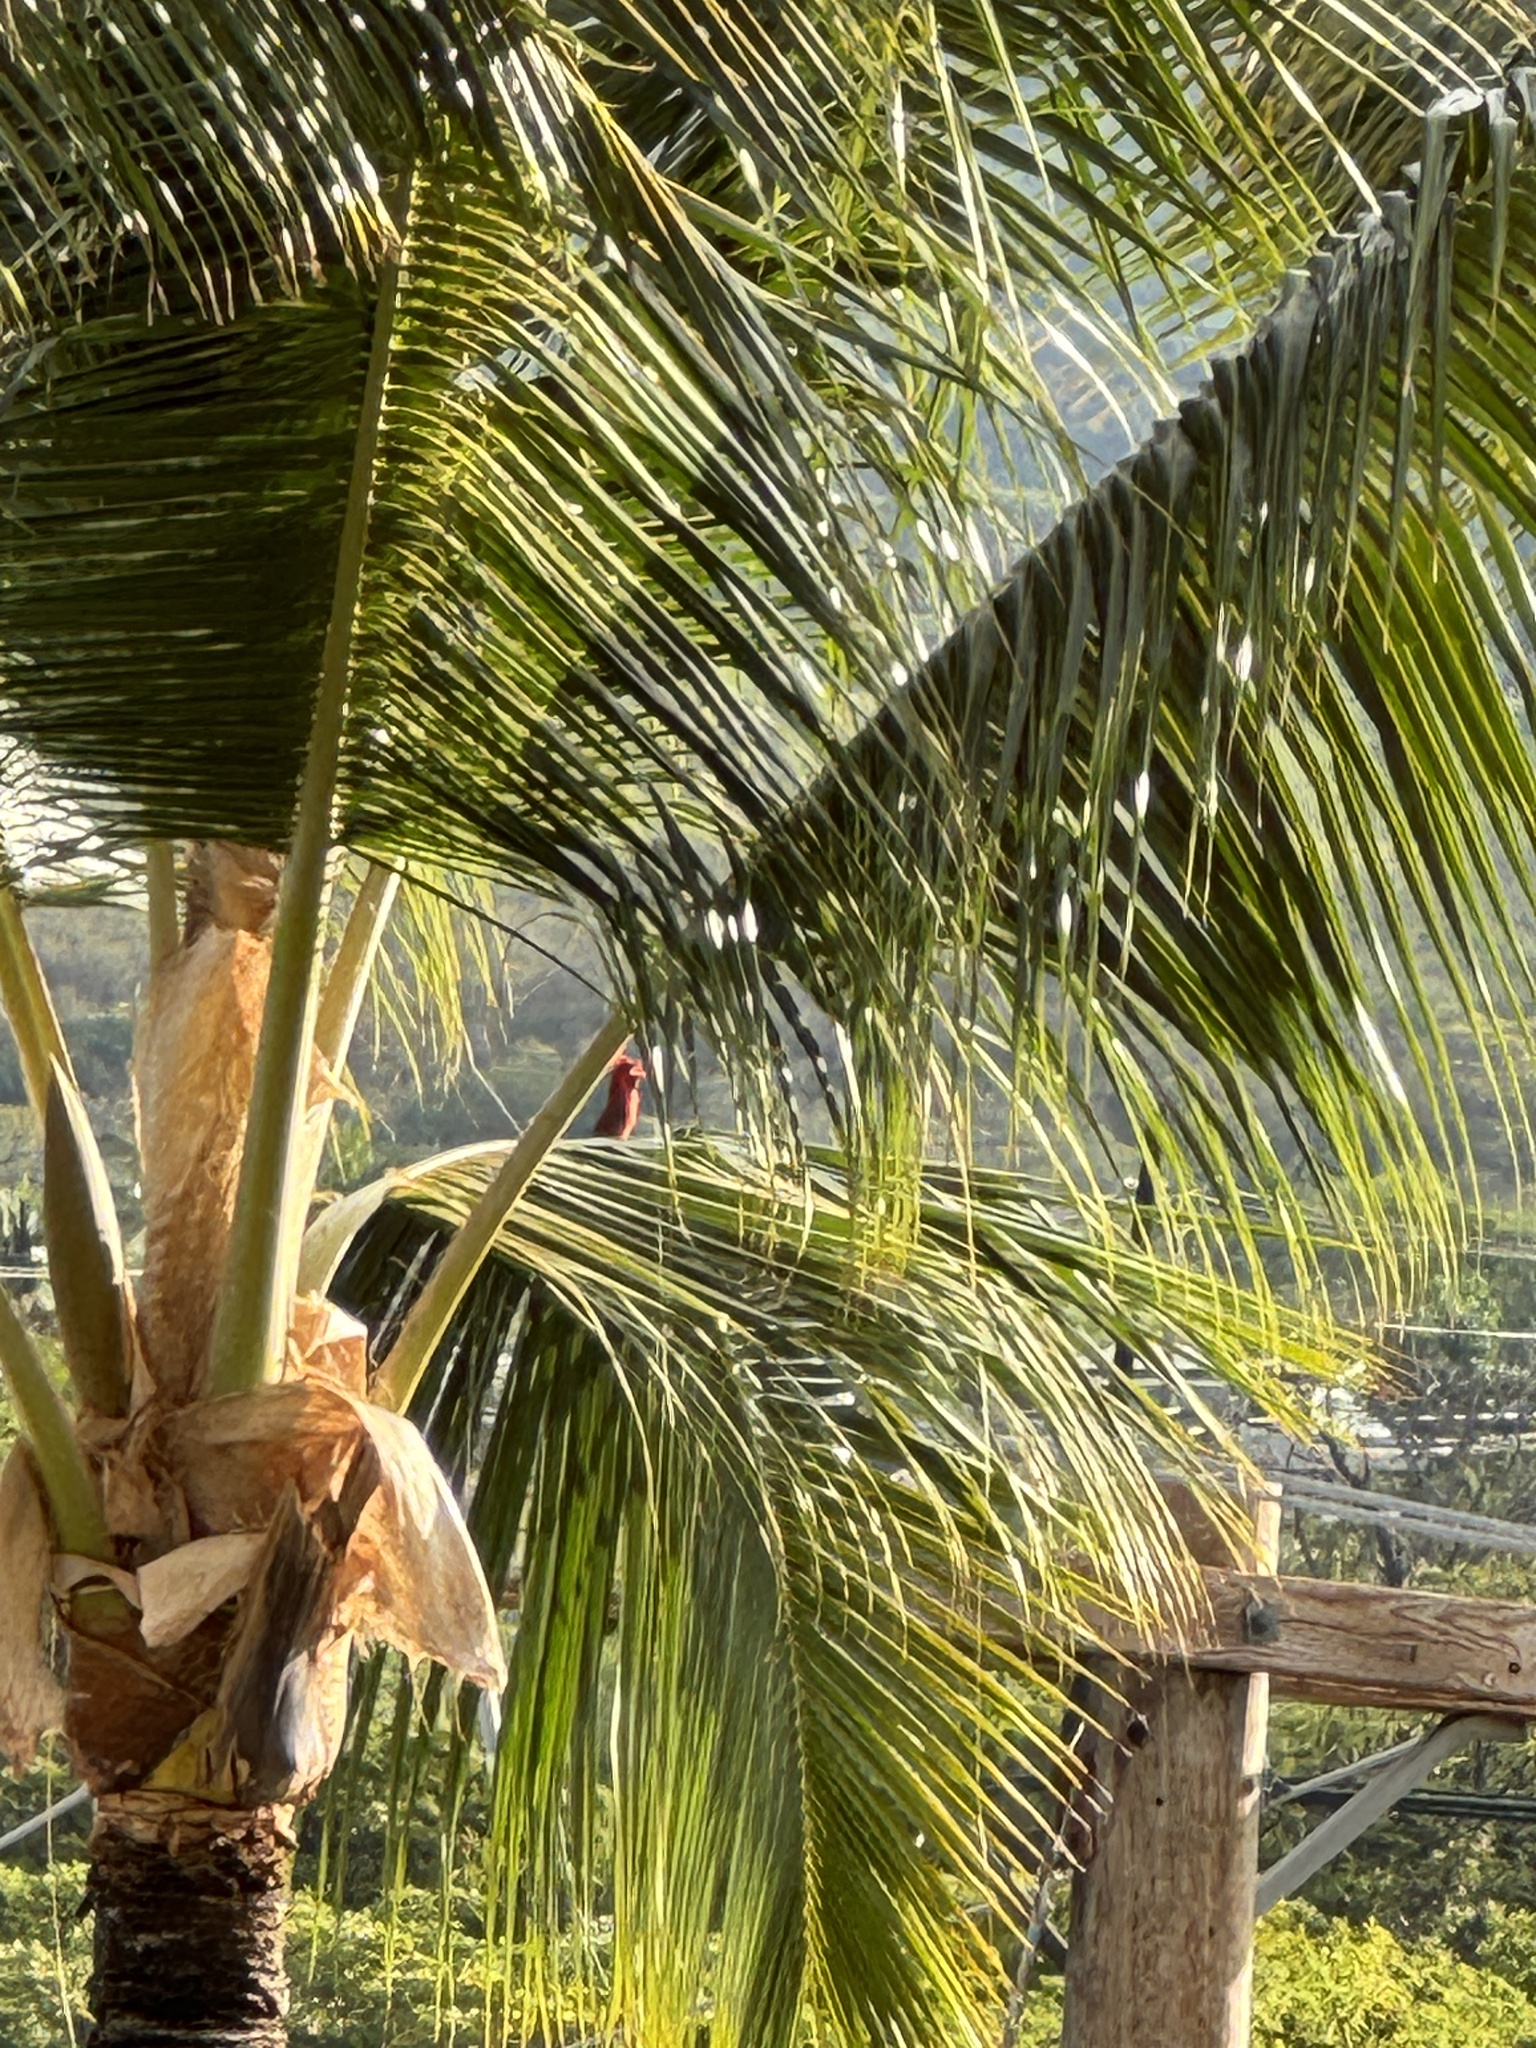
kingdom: Animalia
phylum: Chordata
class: Aves
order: Passeriformes
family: Cardinalidae
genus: Cardinalis
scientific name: Cardinalis cardinalis
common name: Northern cardinal
